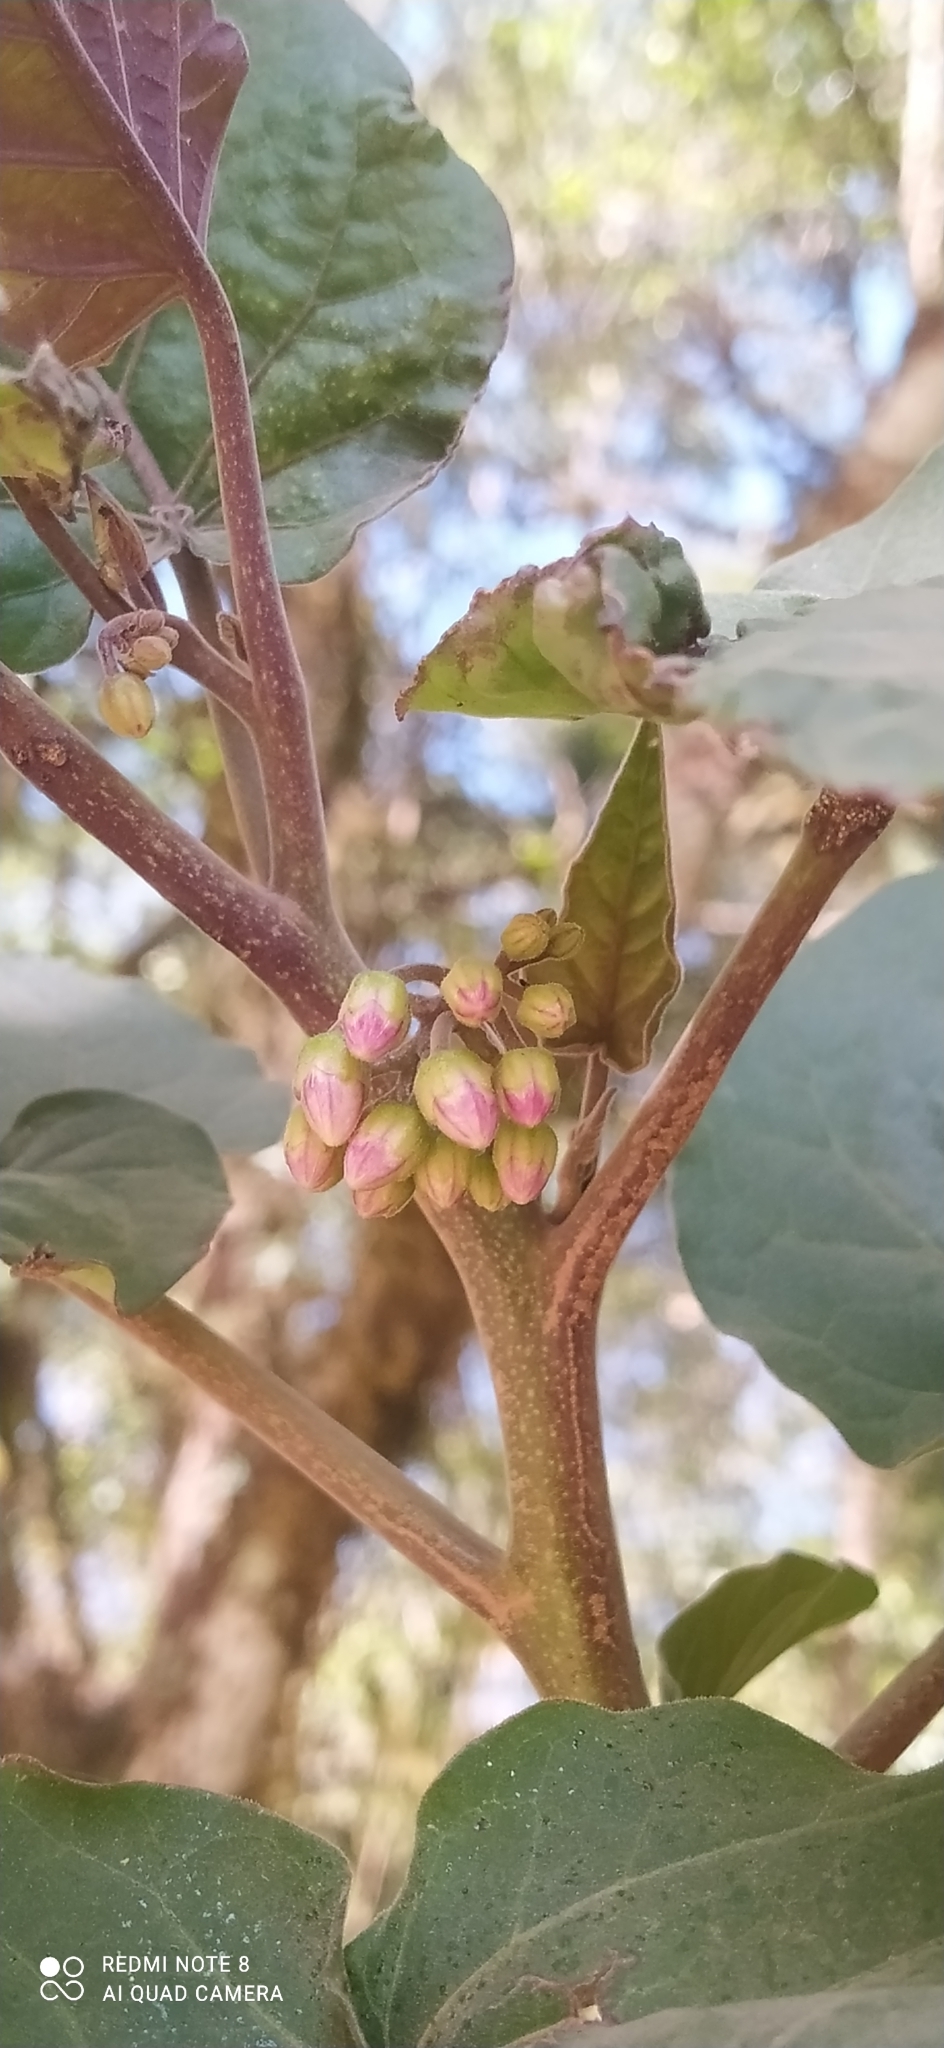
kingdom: Plantae
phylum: Tracheophyta
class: Magnoliopsida
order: Solanales
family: Solanaceae
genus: Solanum
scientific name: Solanum betaceum
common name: Tamarillo
